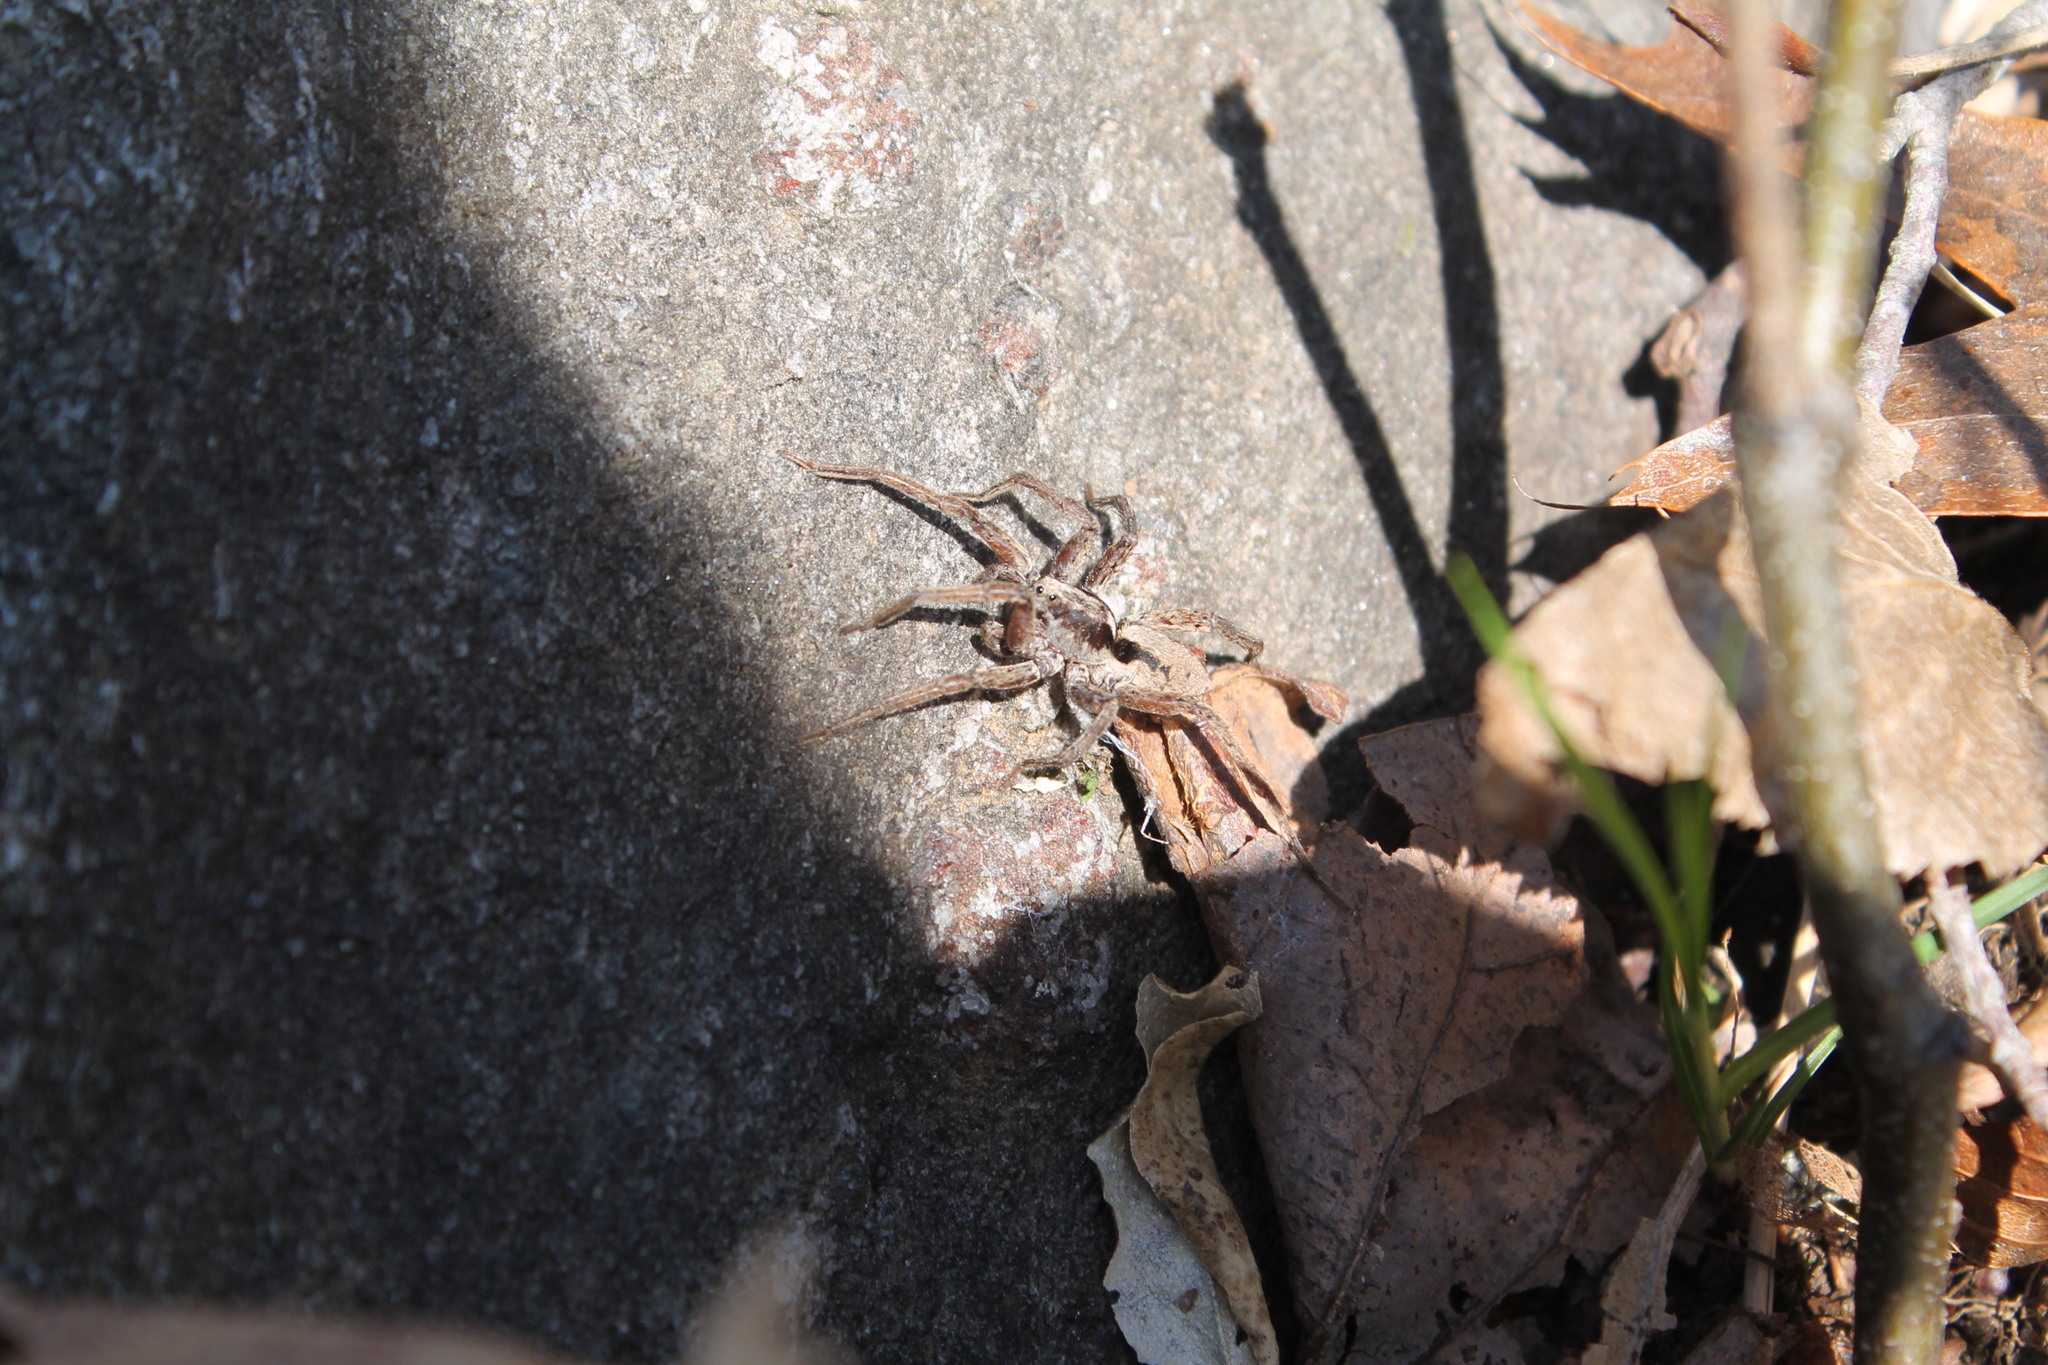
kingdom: Animalia
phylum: Arthropoda
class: Arachnida
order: Araneae
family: Lycosidae
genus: Gladicosa
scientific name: Gladicosa gulosa
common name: Drumming sword wolf spider
